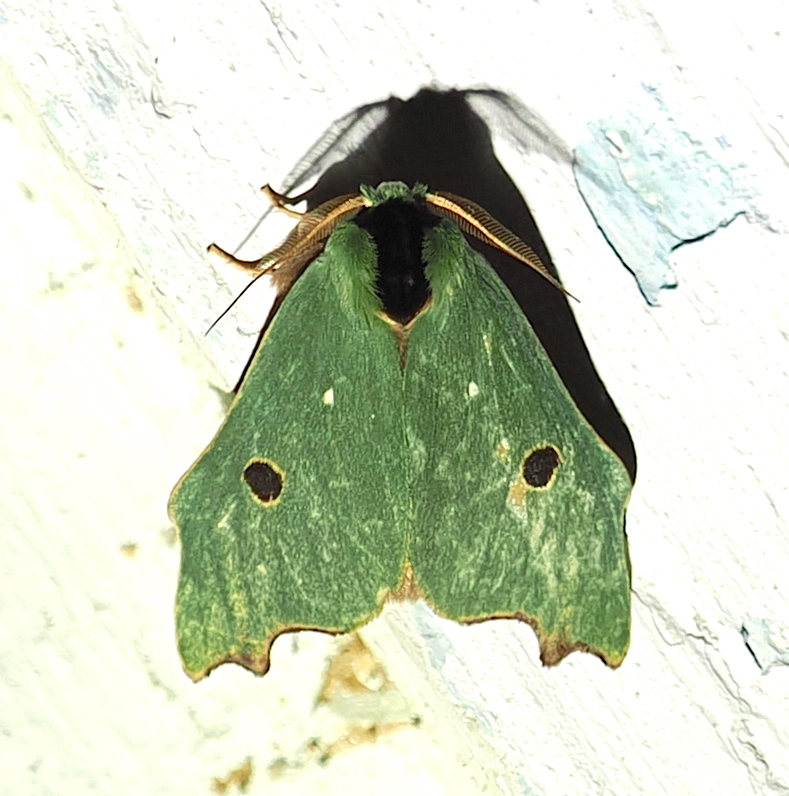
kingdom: Animalia
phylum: Arthropoda
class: Insecta
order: Lepidoptera
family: Notodontidae
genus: Rosema
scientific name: Rosema melini
